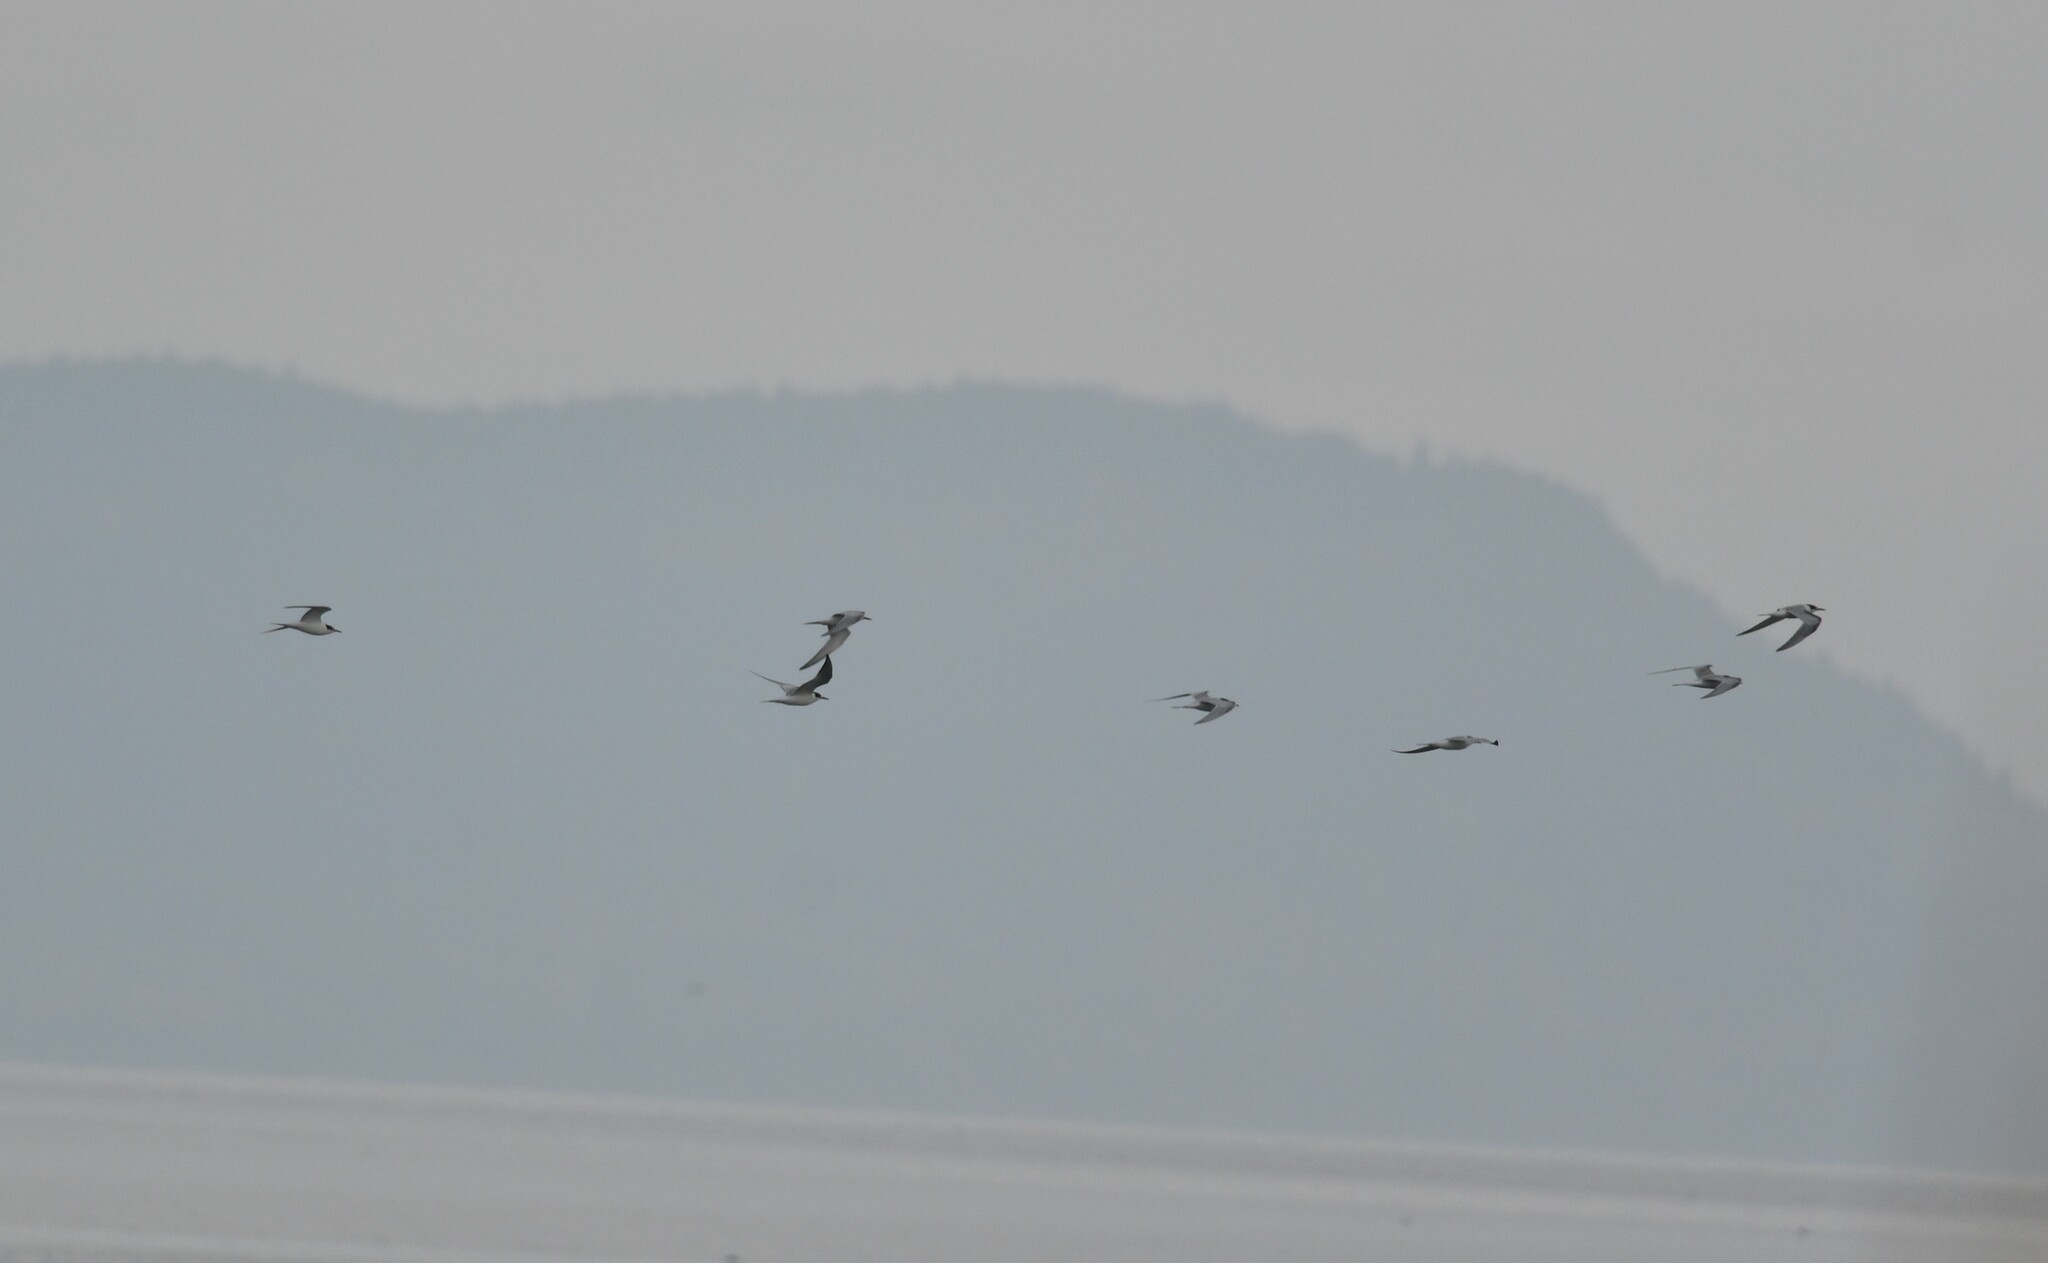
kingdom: Animalia
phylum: Chordata
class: Aves
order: Charadriiformes
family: Laridae
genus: Sterna
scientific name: Sterna hirundo
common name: Common tern
